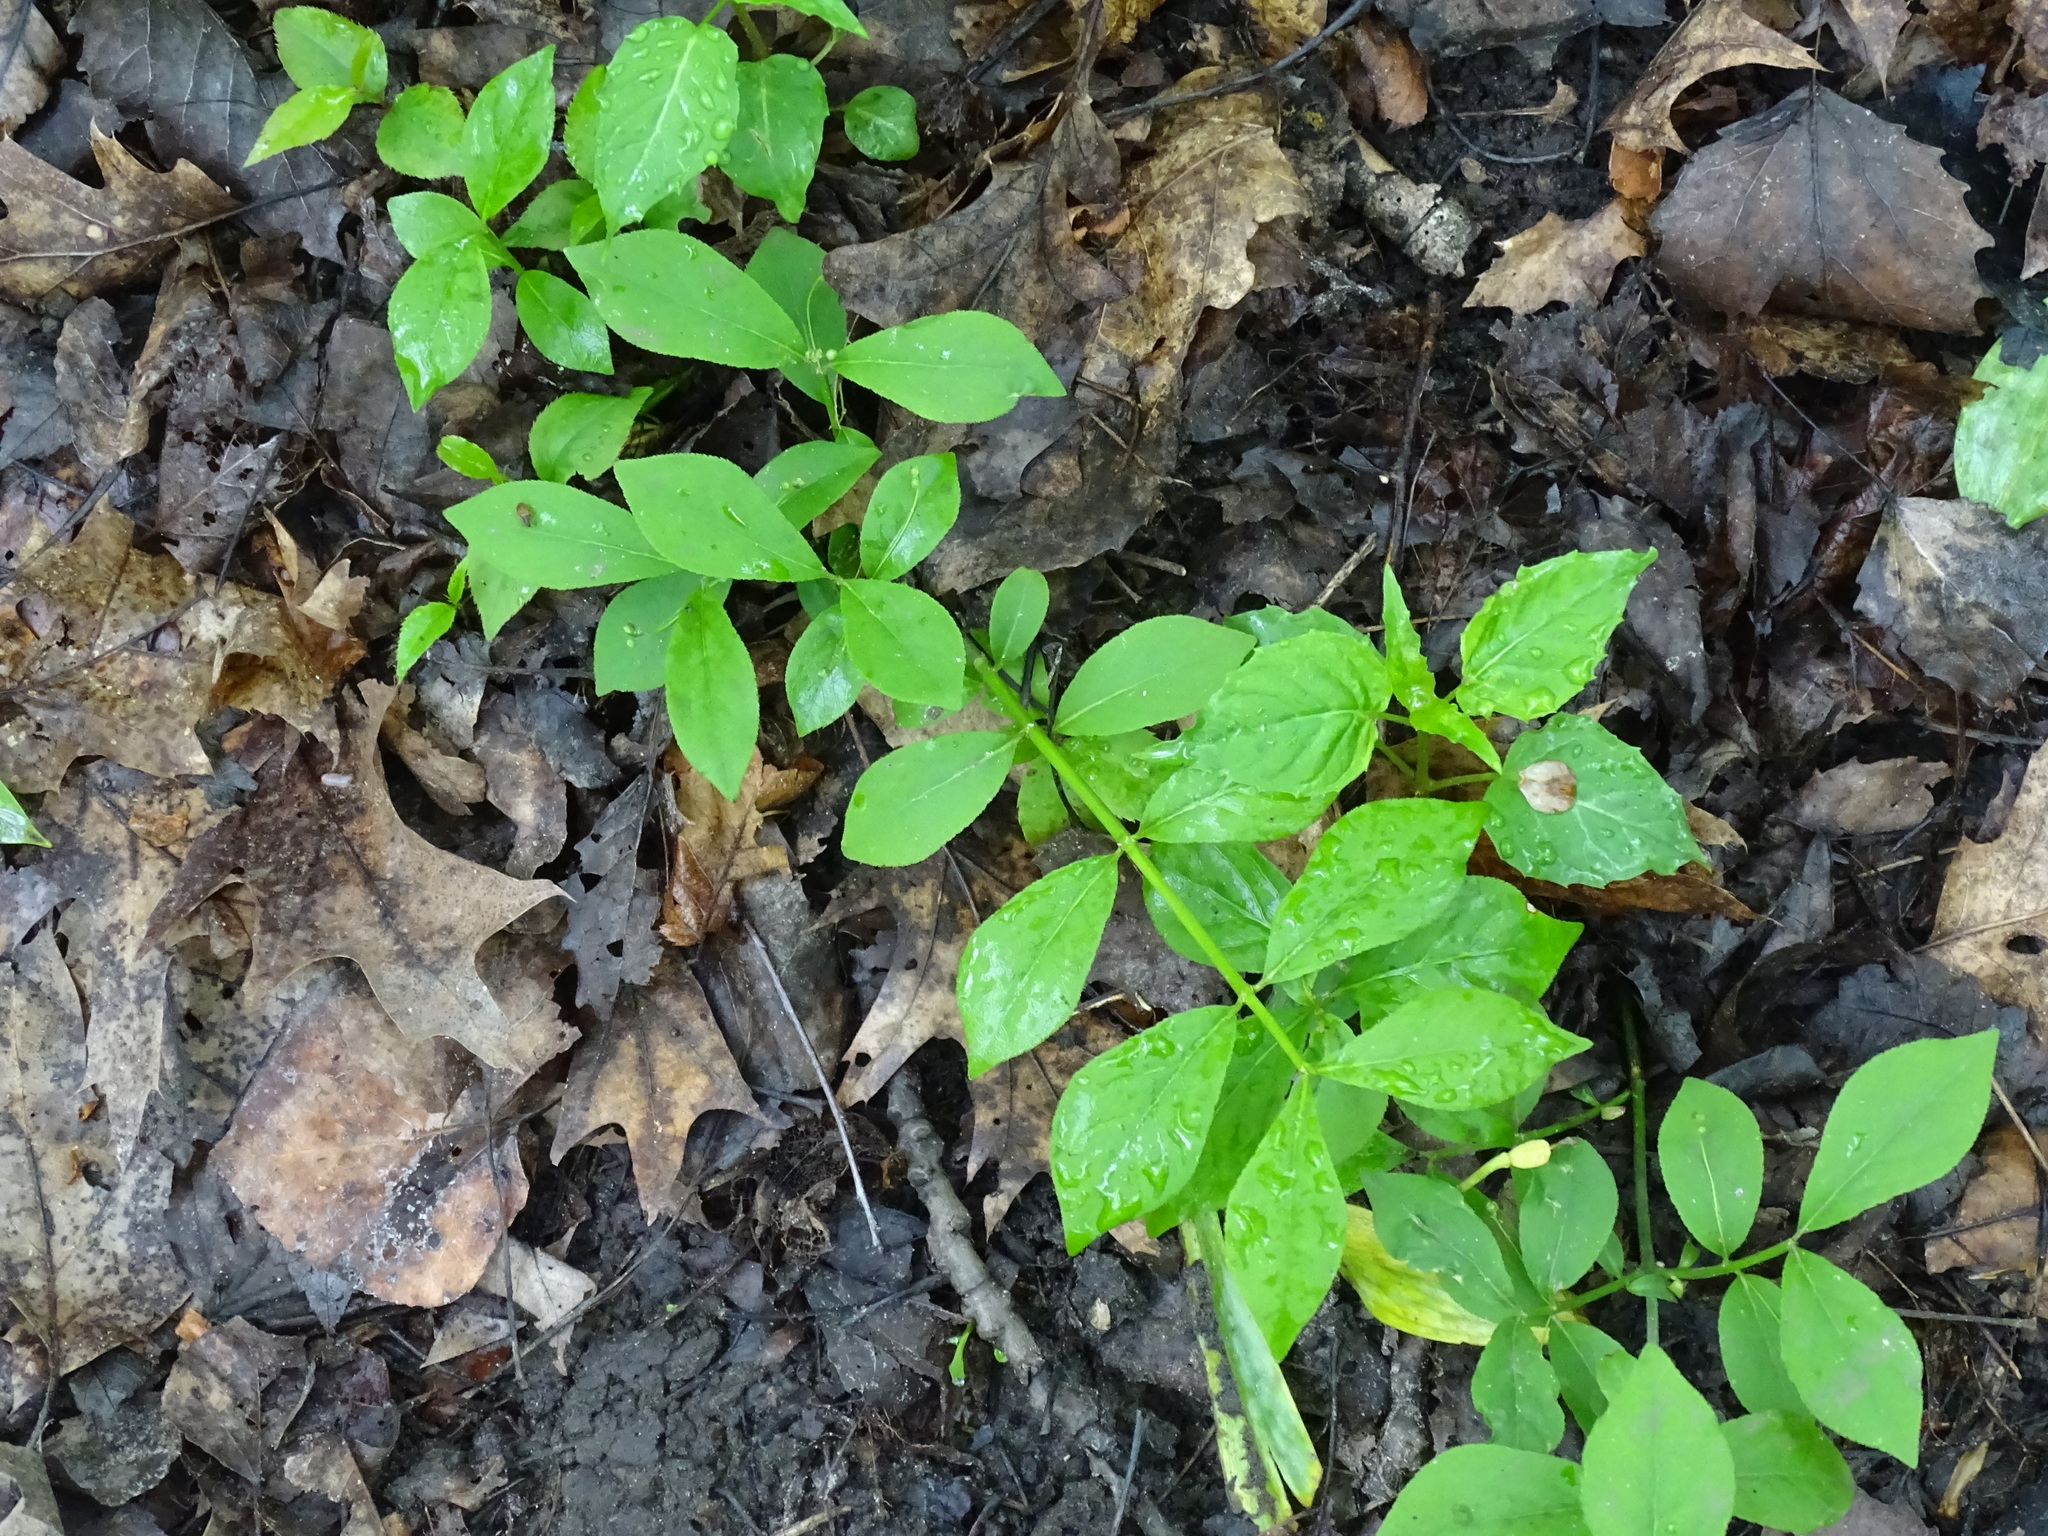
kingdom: Plantae
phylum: Tracheophyta
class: Magnoliopsida
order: Celastrales
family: Celastraceae
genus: Euonymus
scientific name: Euonymus obovatus
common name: Running strawberry-bush
